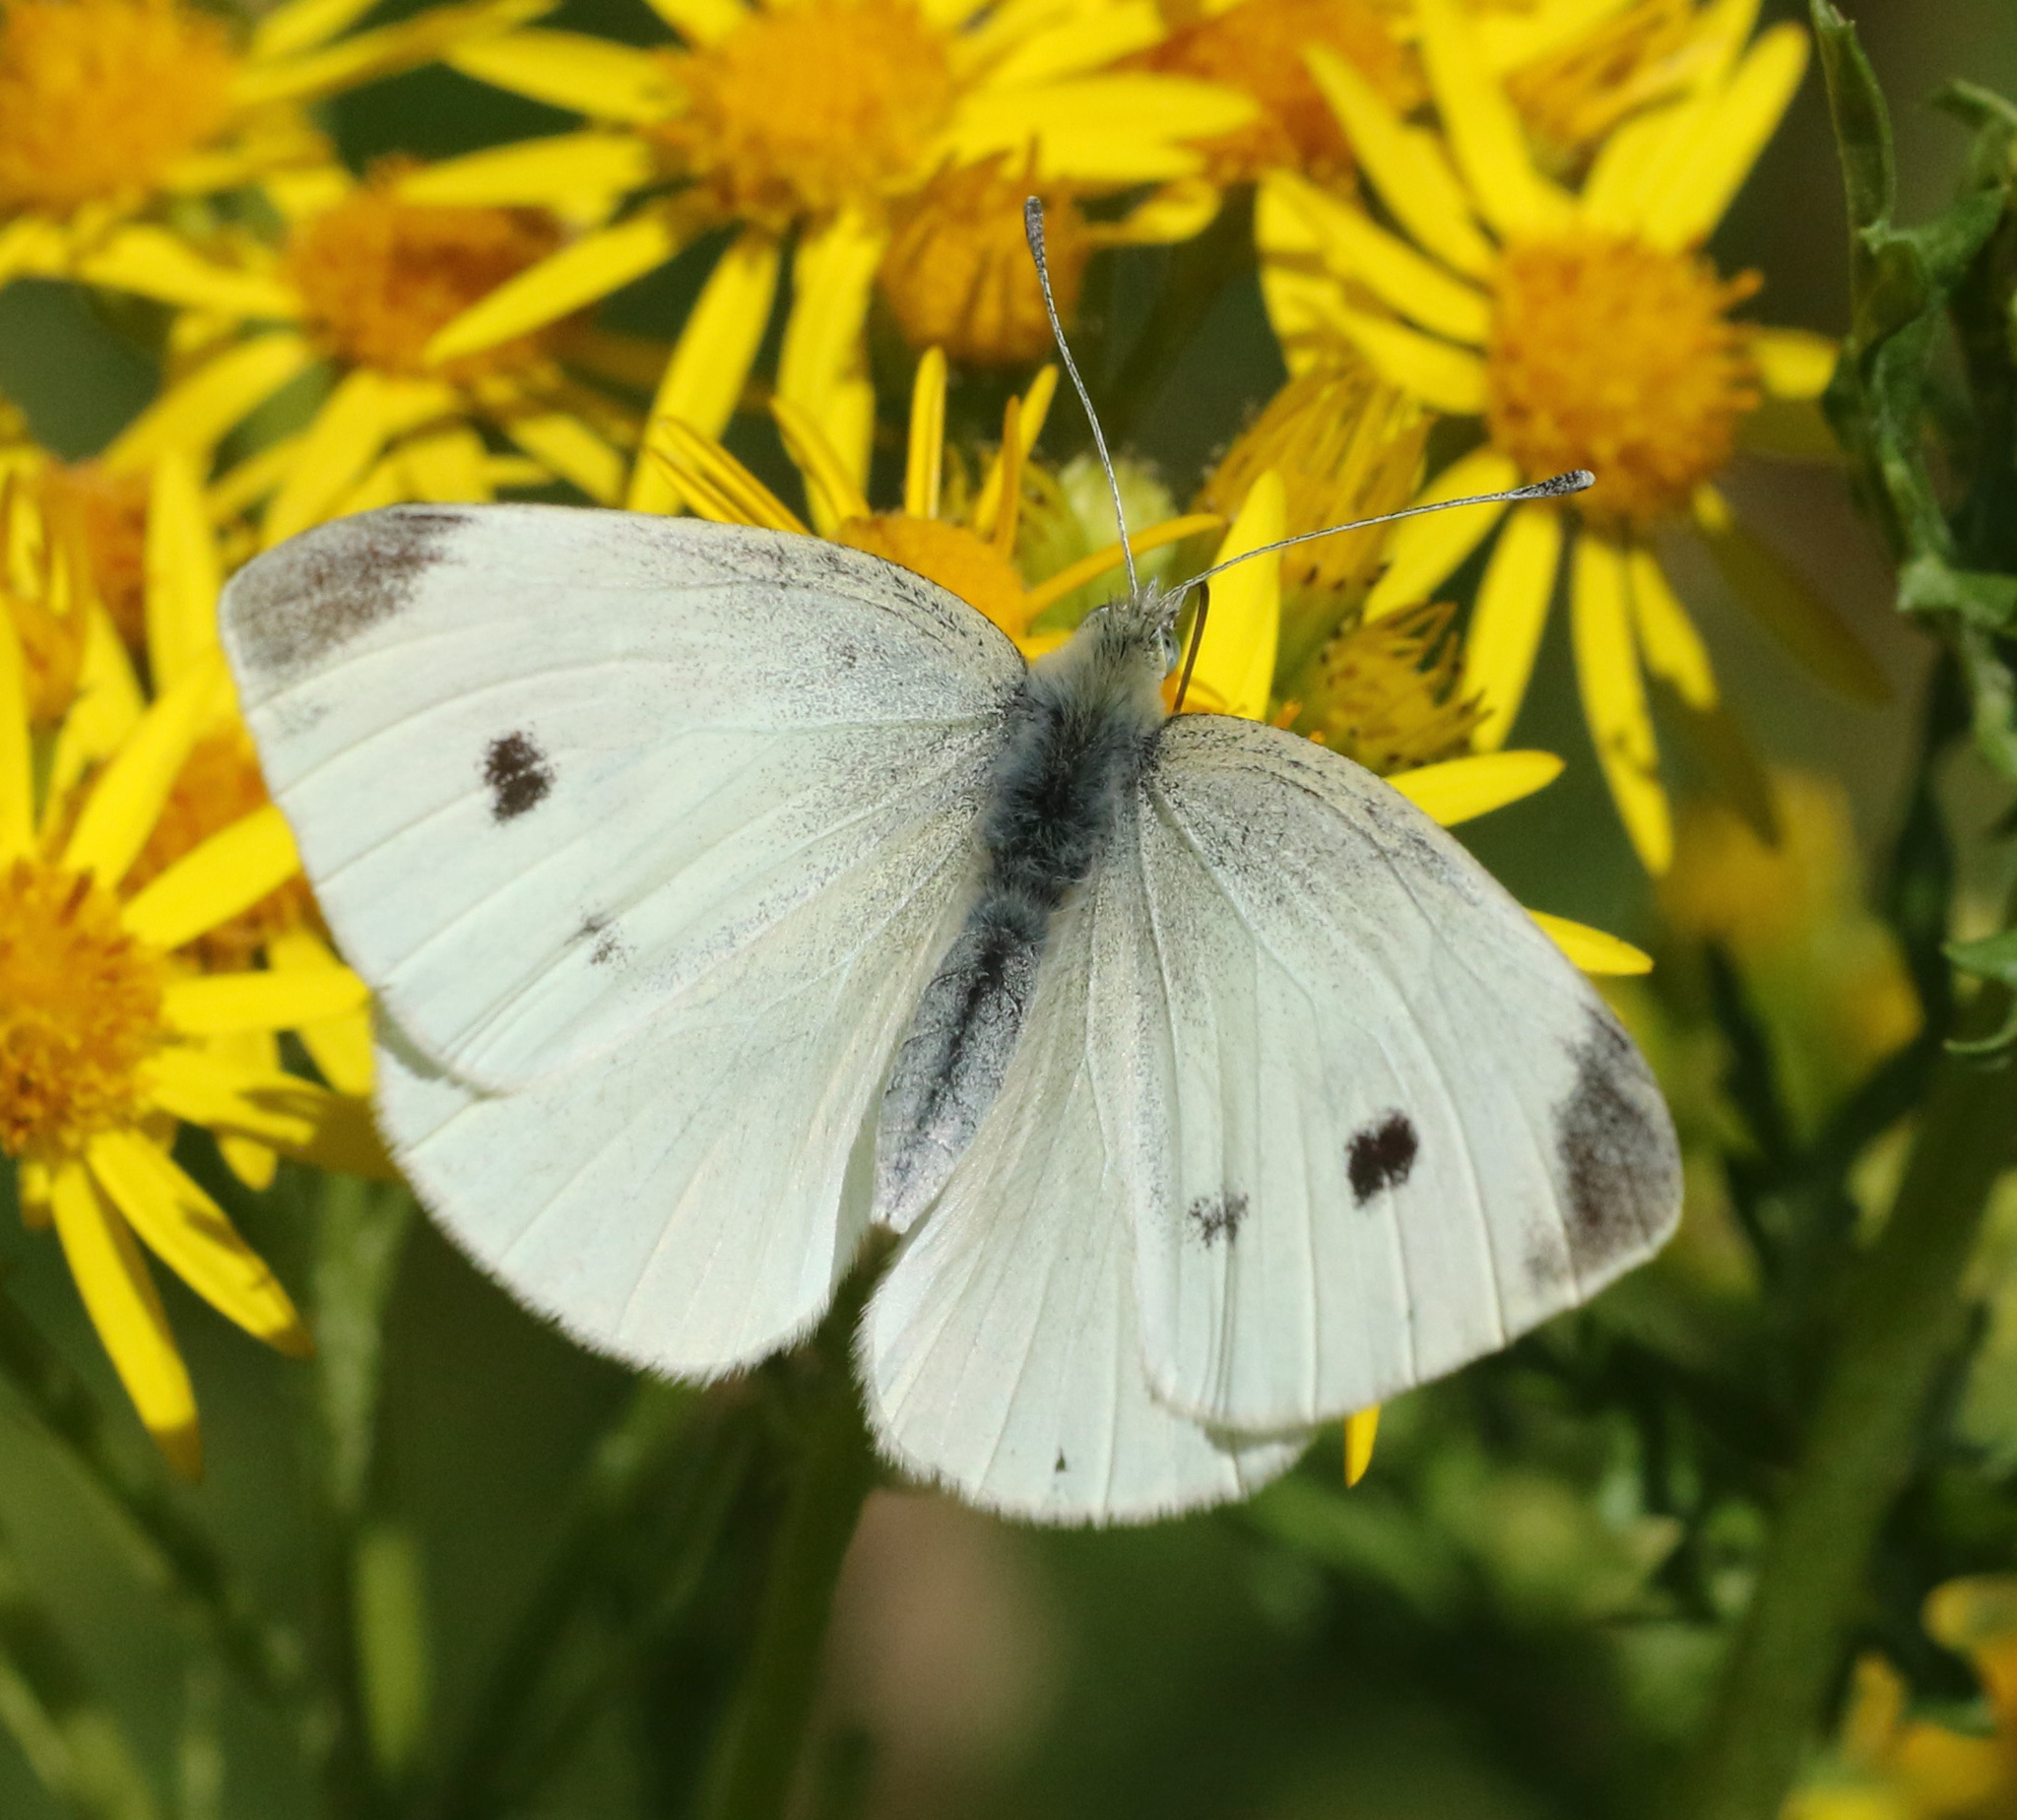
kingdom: Animalia
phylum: Arthropoda
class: Insecta
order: Lepidoptera
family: Pieridae
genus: Pieris
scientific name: Pieris rapae
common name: Small white
